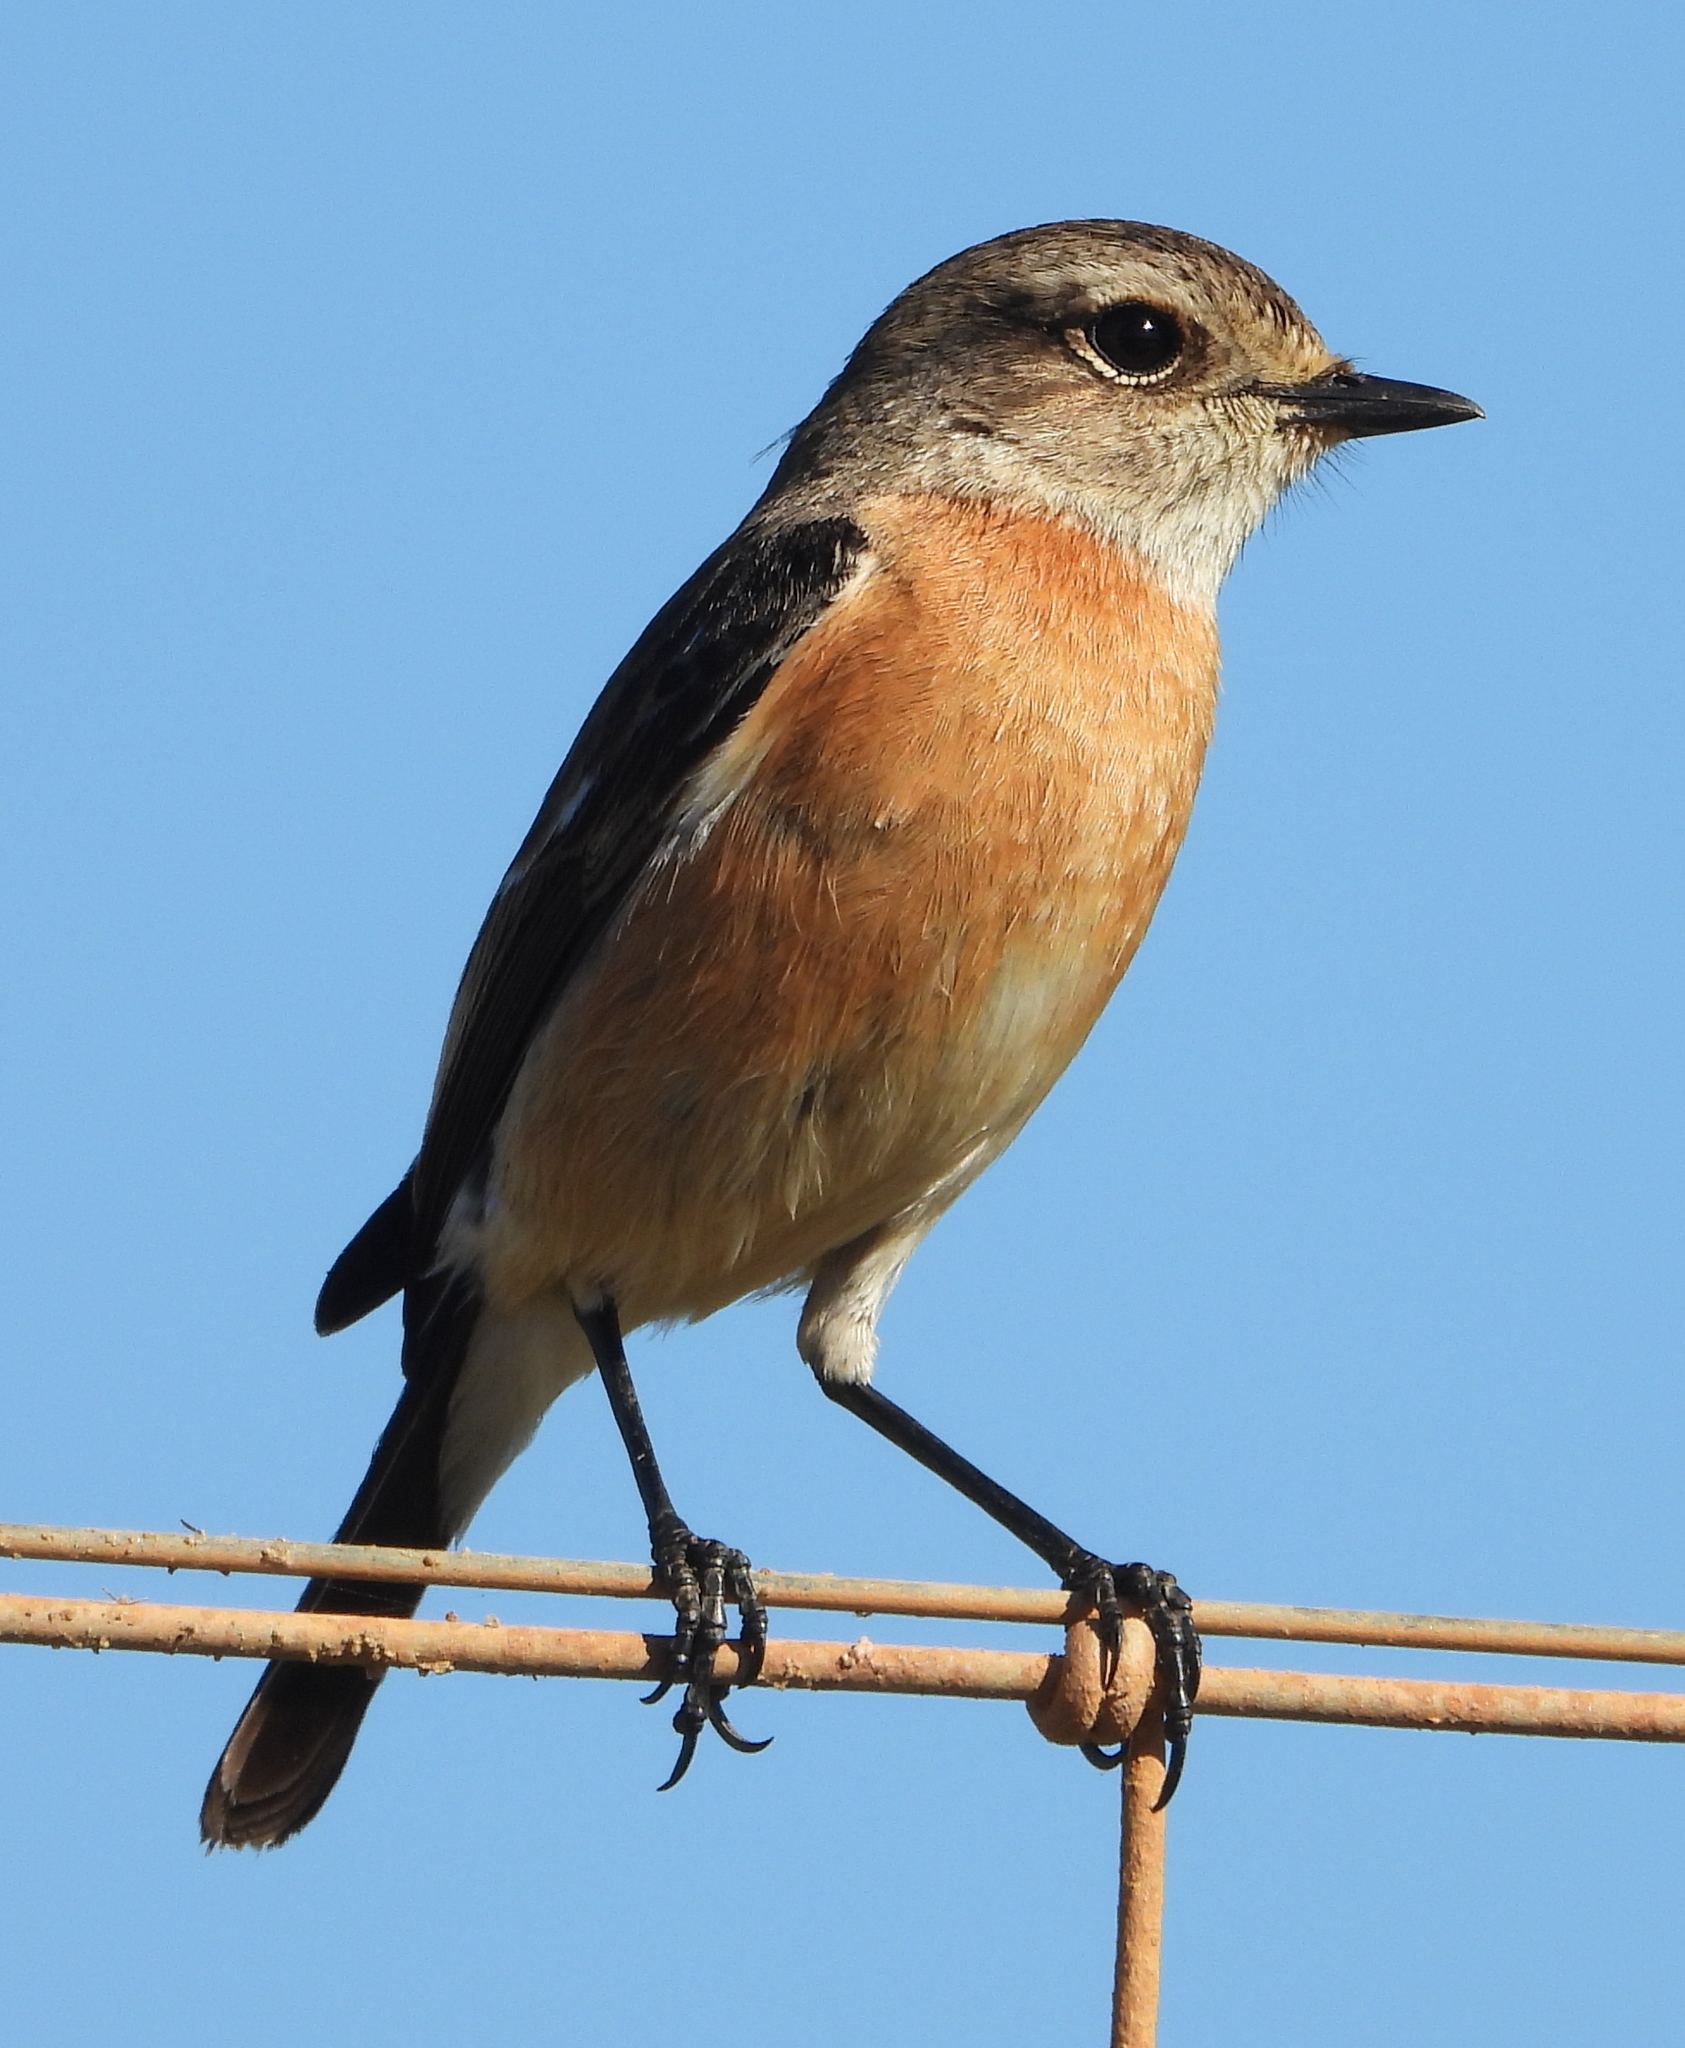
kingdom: Animalia
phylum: Chordata
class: Aves
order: Passeriformes
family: Muscicapidae
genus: Saxicola
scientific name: Saxicola torquatus
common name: African stonechat
